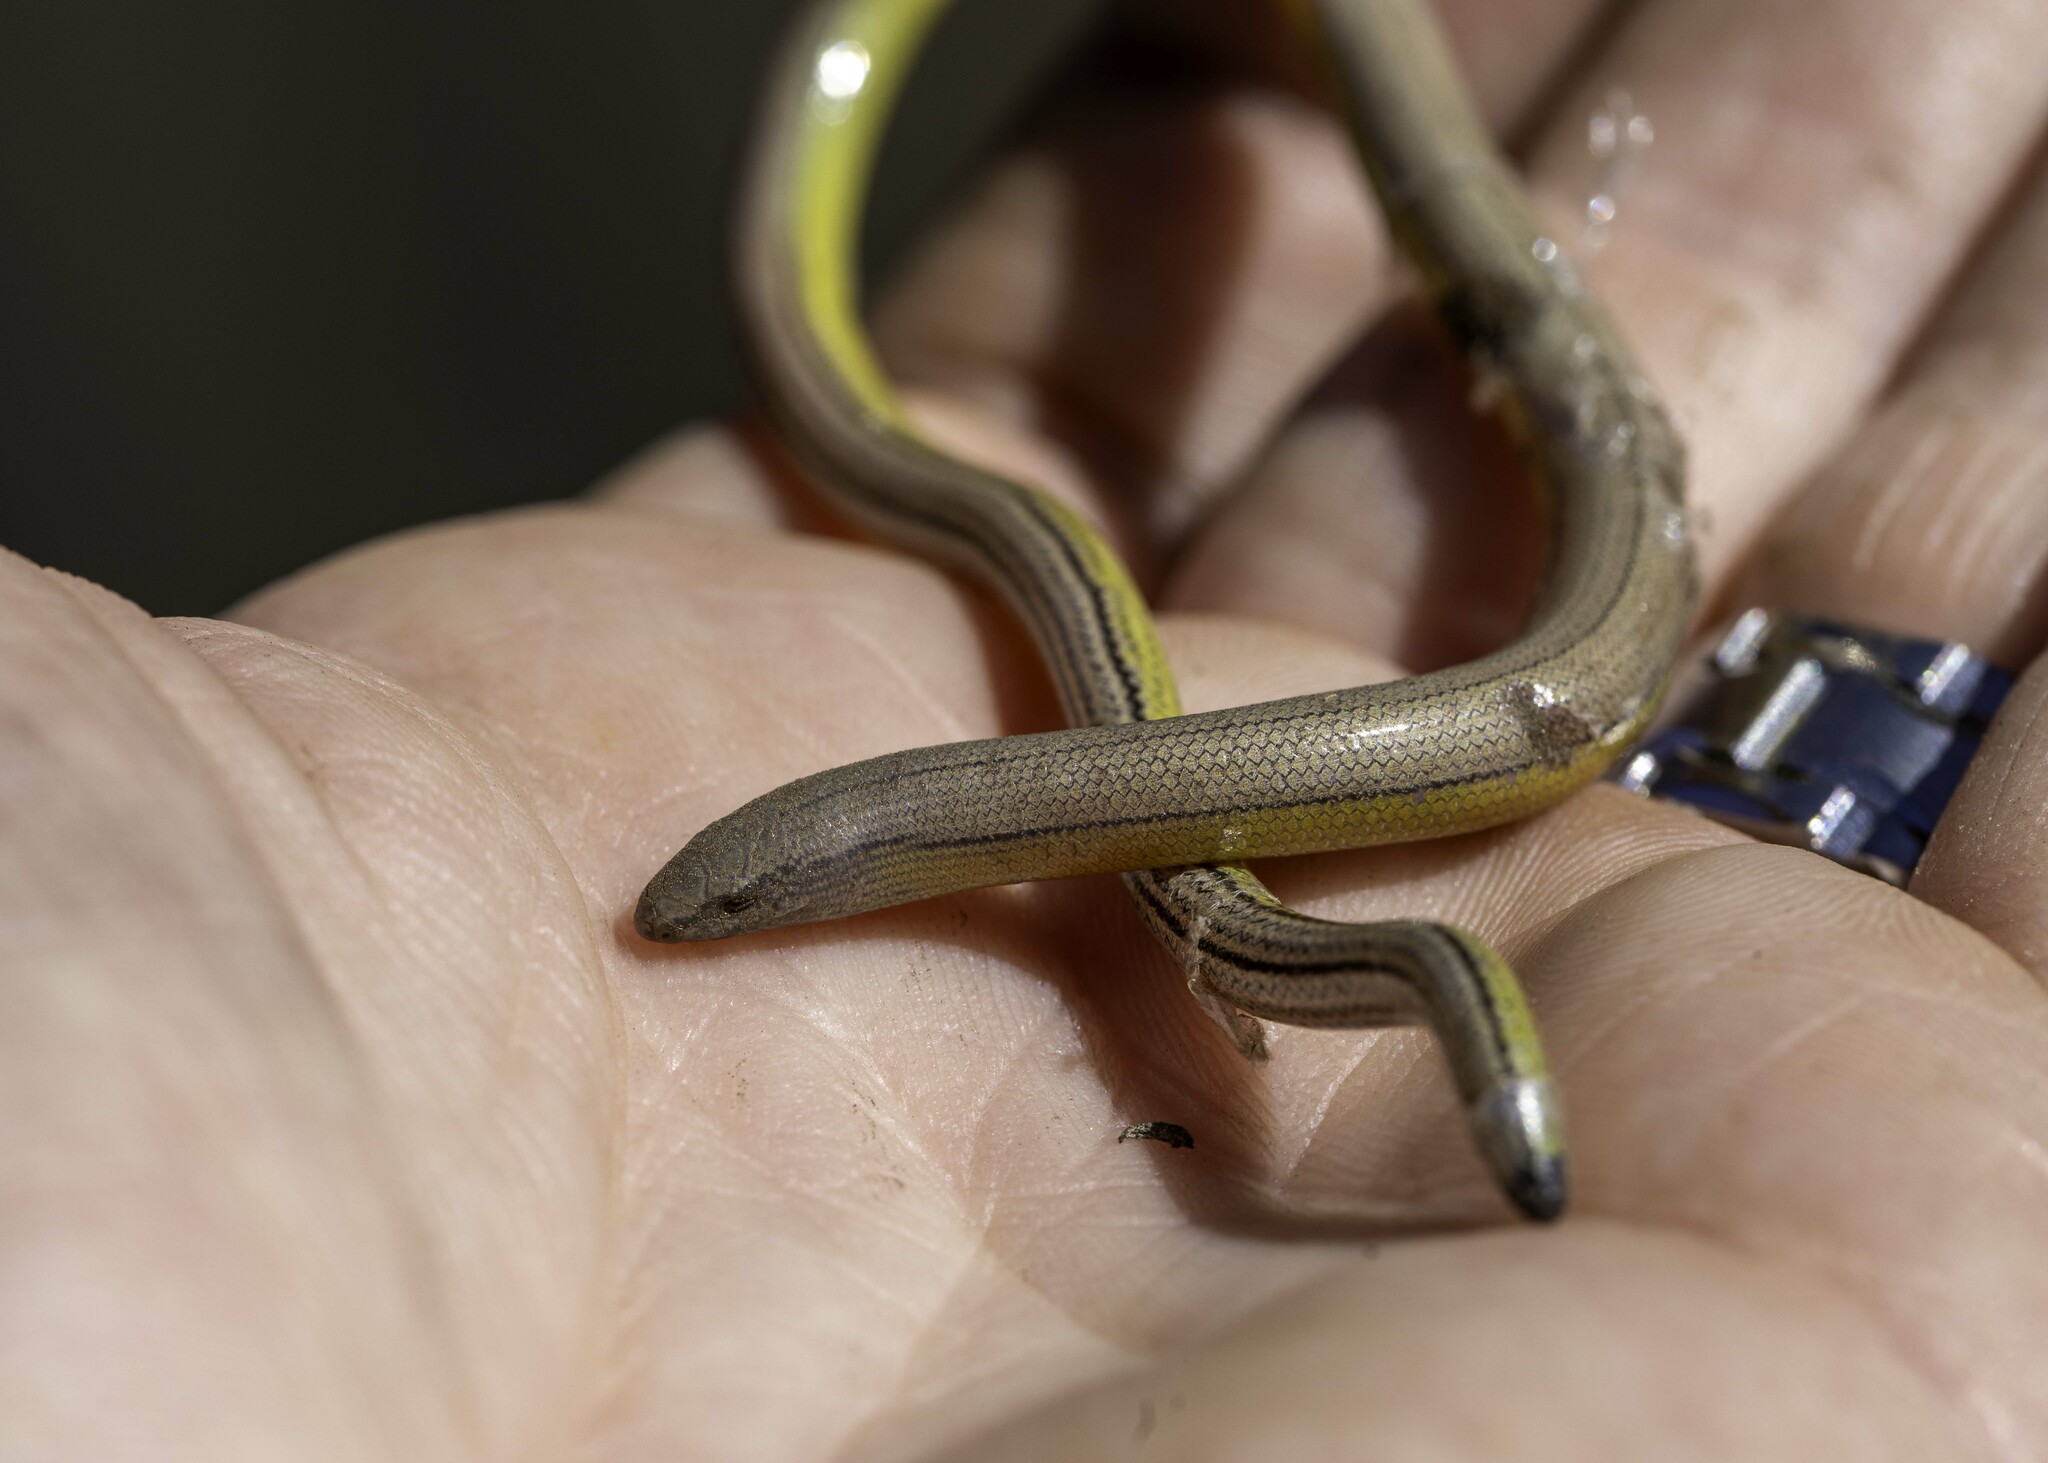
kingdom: Animalia
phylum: Chordata
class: Squamata
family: Anguidae
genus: Anniella
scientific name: Anniella stebbinsi
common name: Southern california legless lizard
